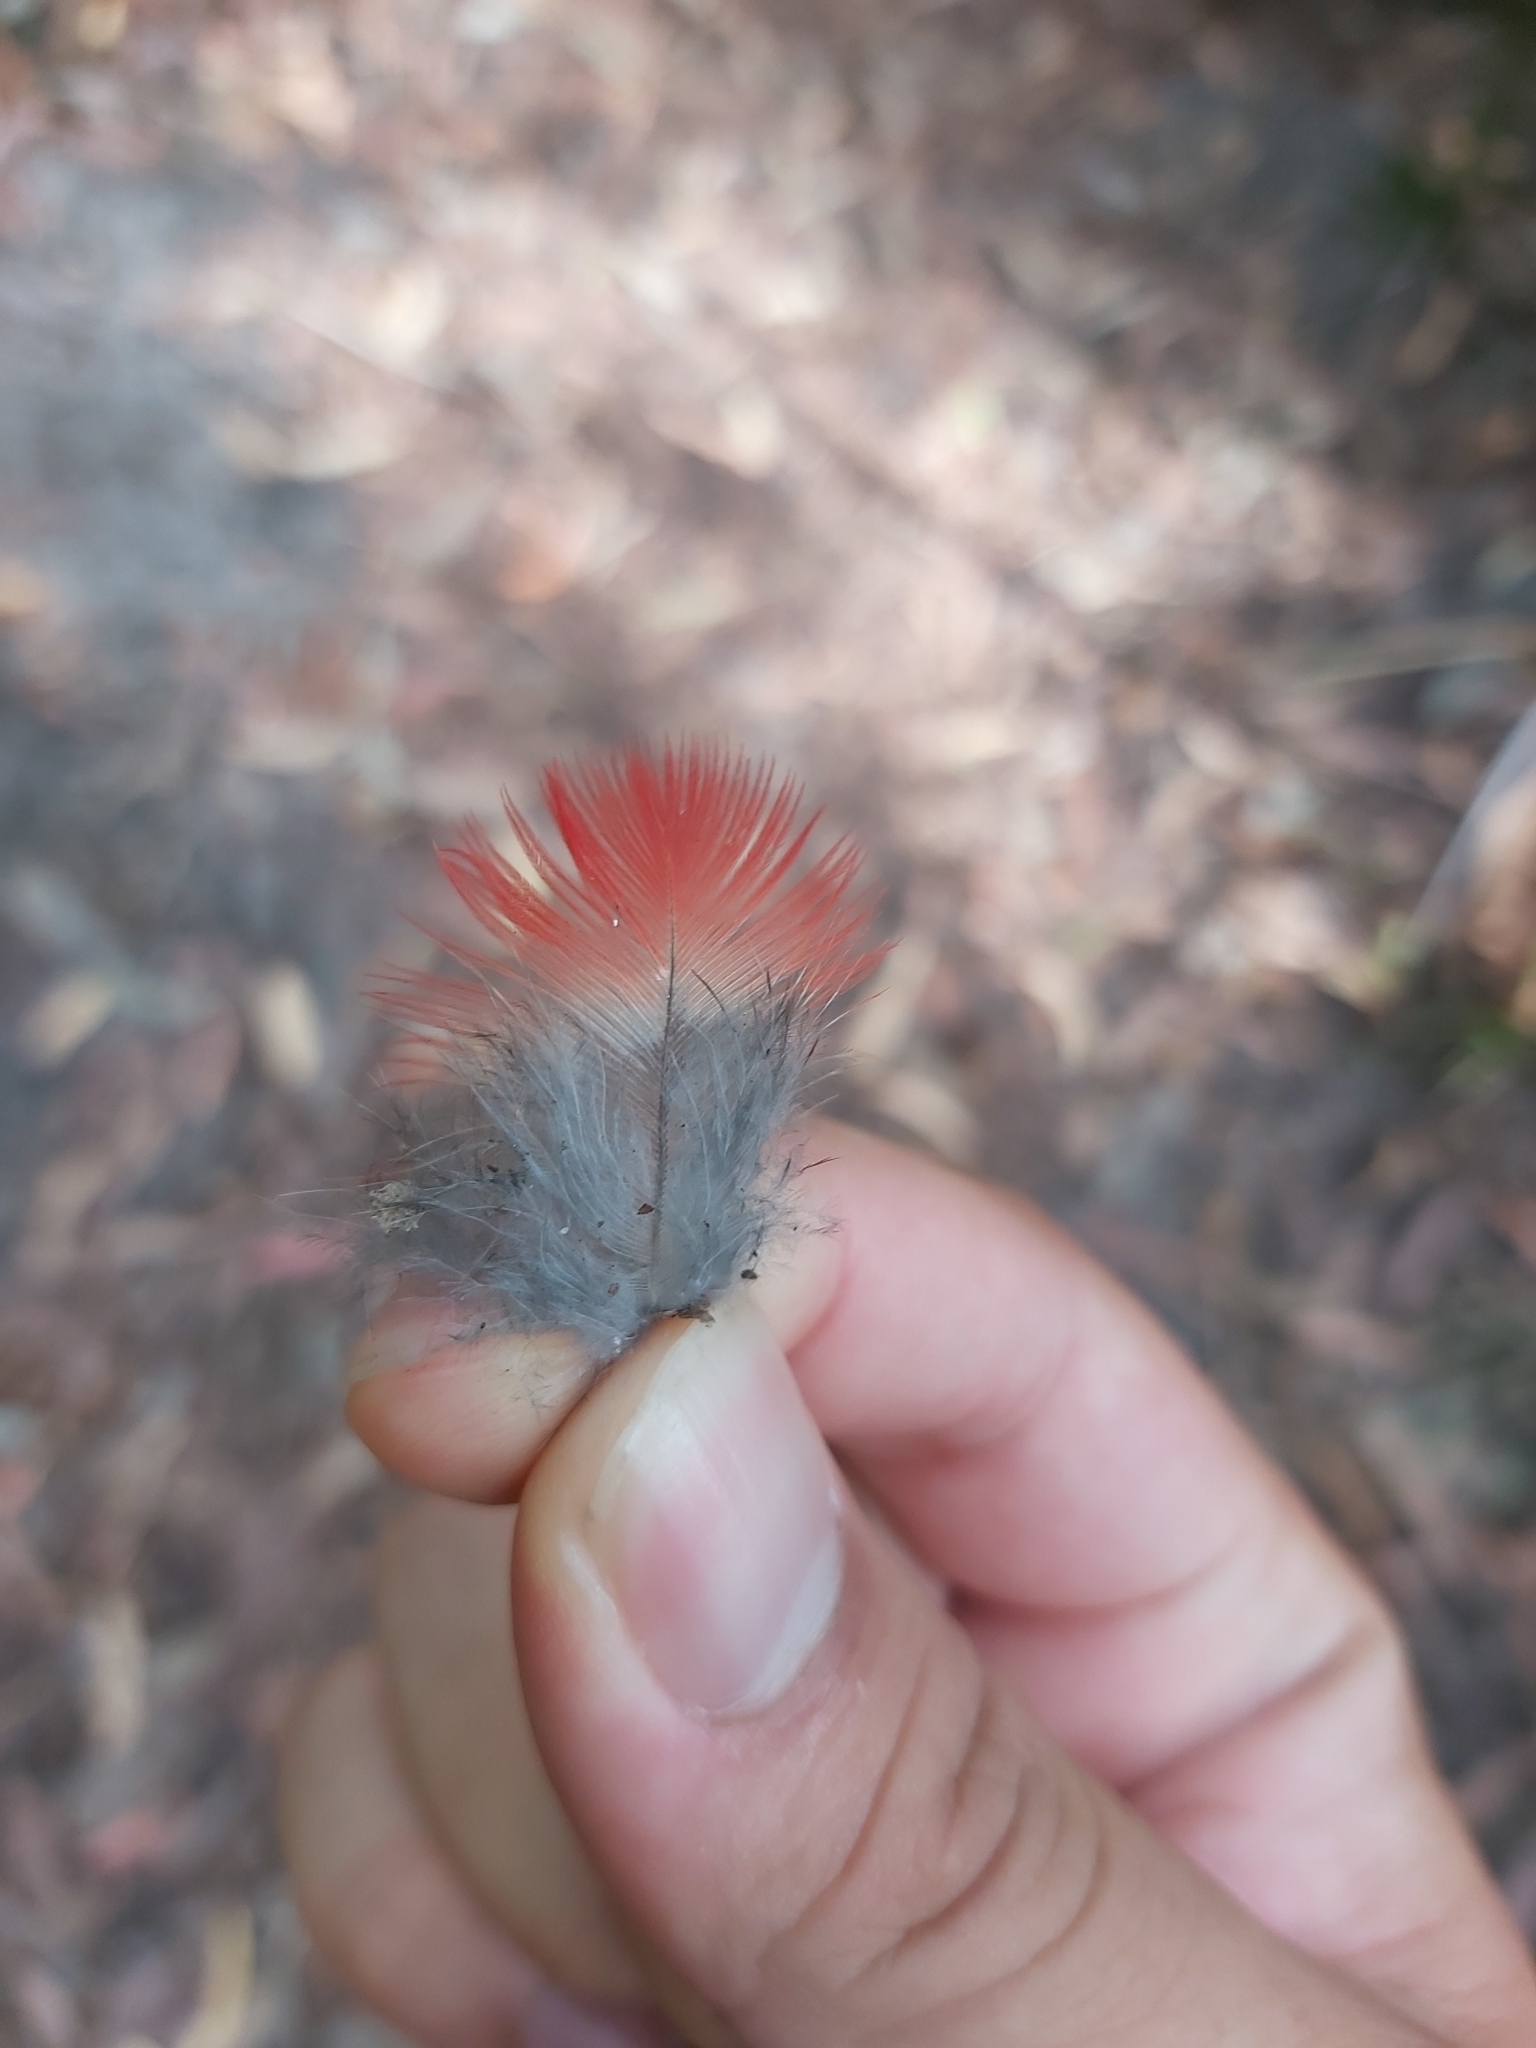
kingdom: Animalia
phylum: Chordata
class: Aves
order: Psittaciformes
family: Psittacidae
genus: Platycercus
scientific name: Platycercus elegans
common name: Crimson rosella
